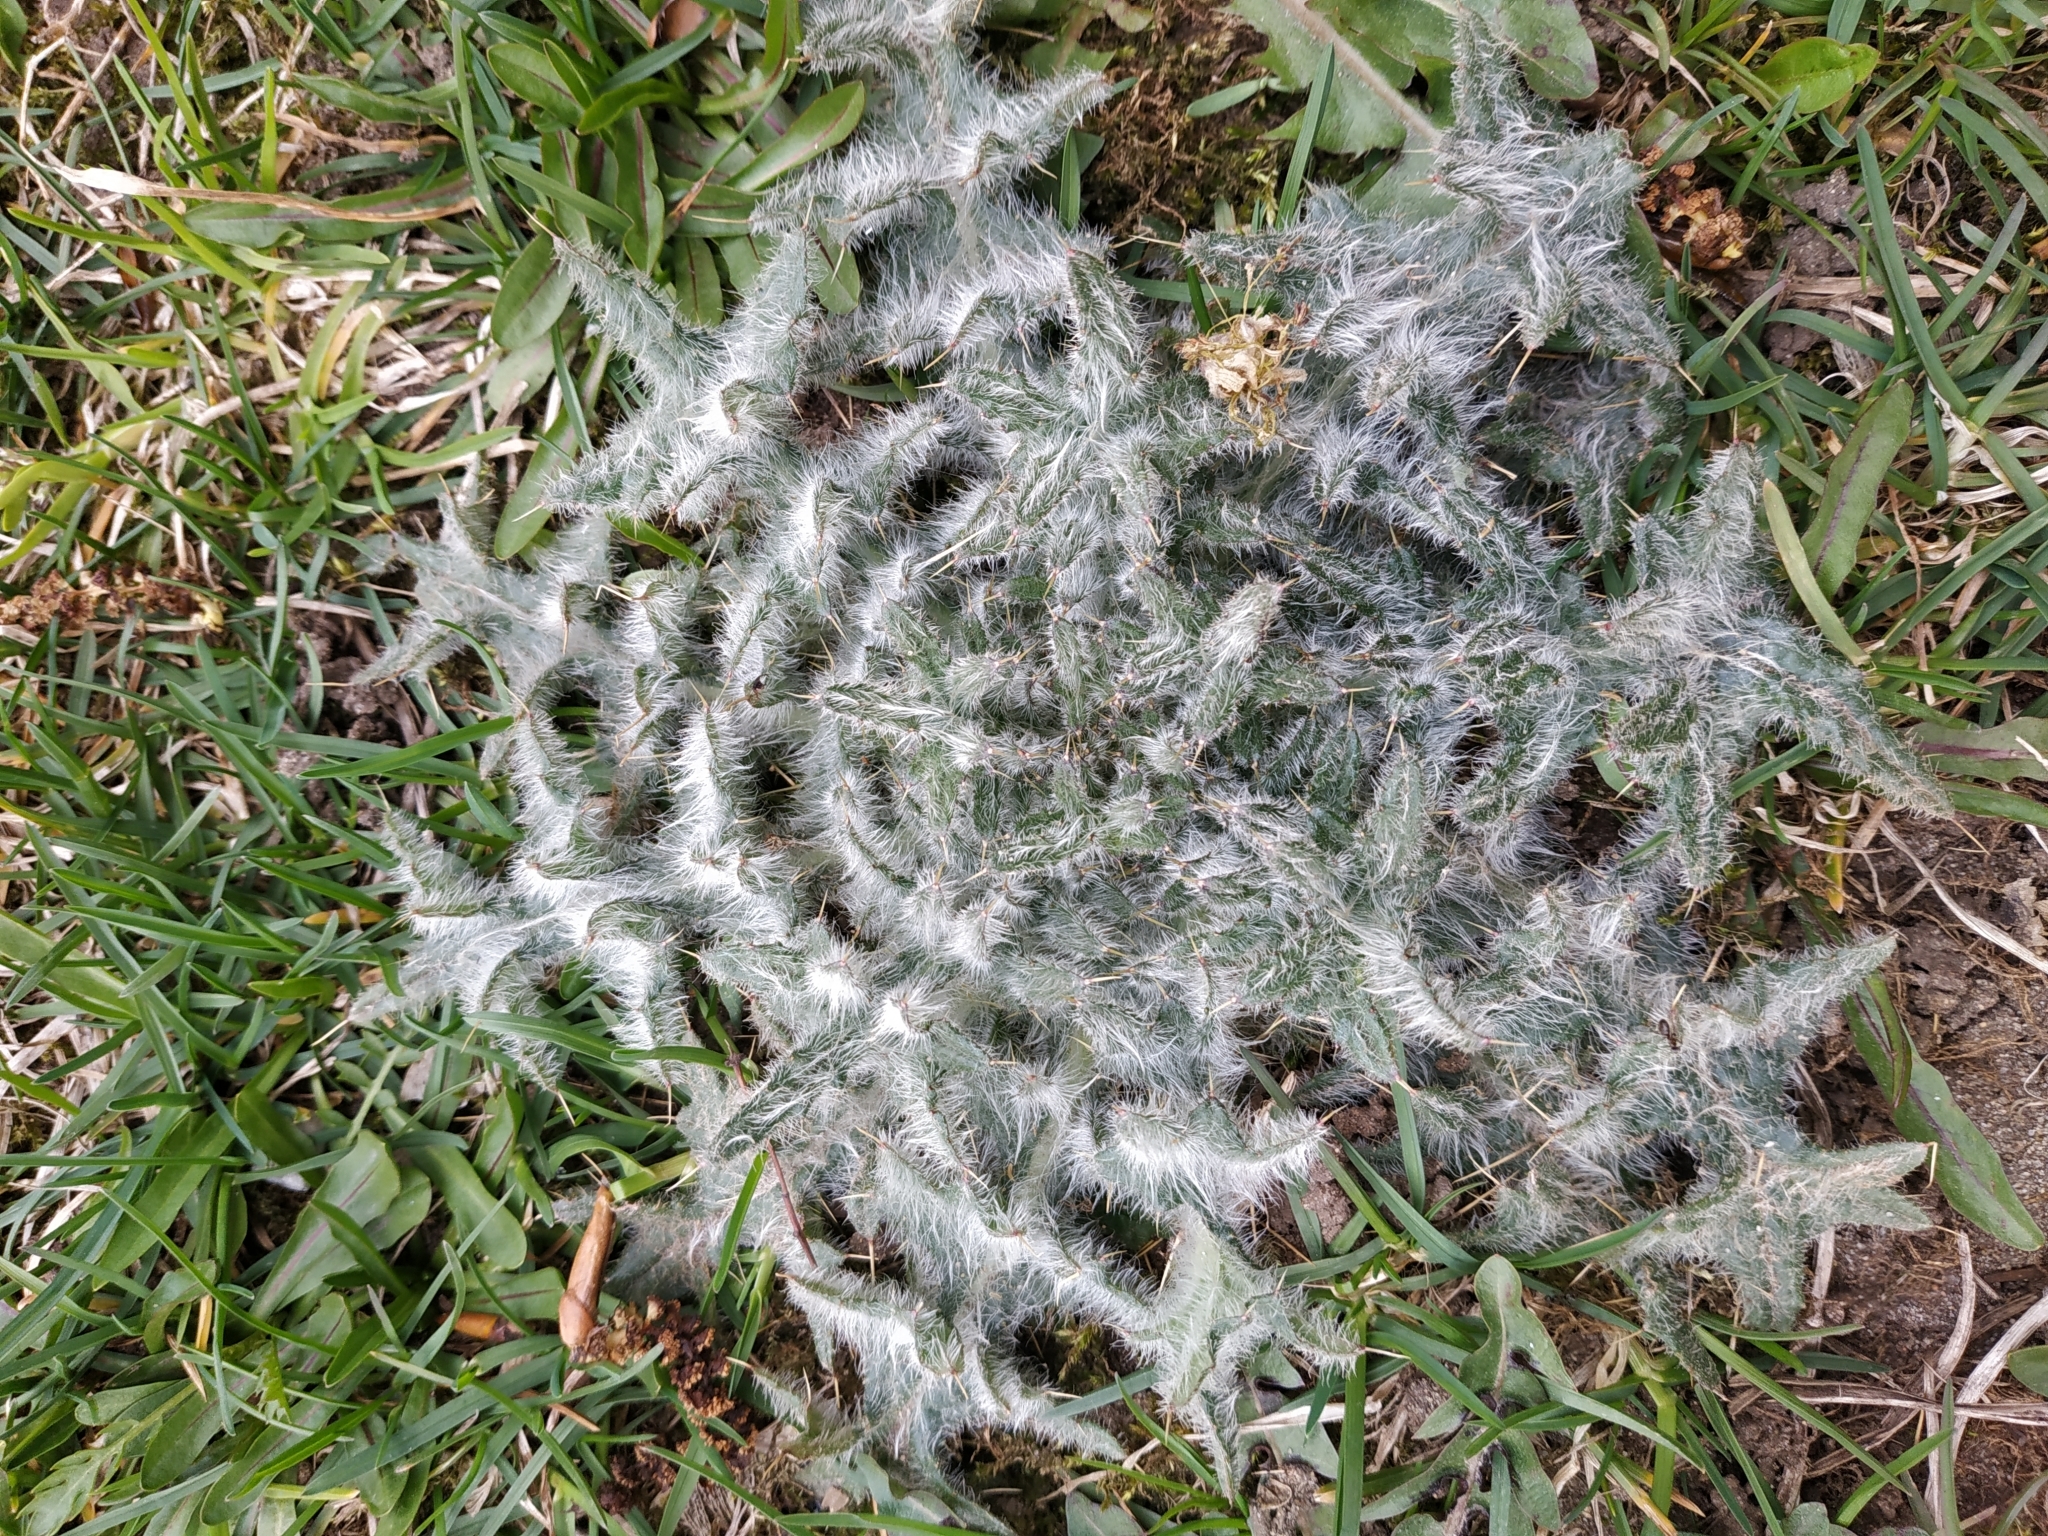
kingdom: Plantae
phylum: Tracheophyta
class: Magnoliopsida
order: Asterales
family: Asteraceae
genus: Cirsium
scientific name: Cirsium vulgare
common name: Bull thistle
